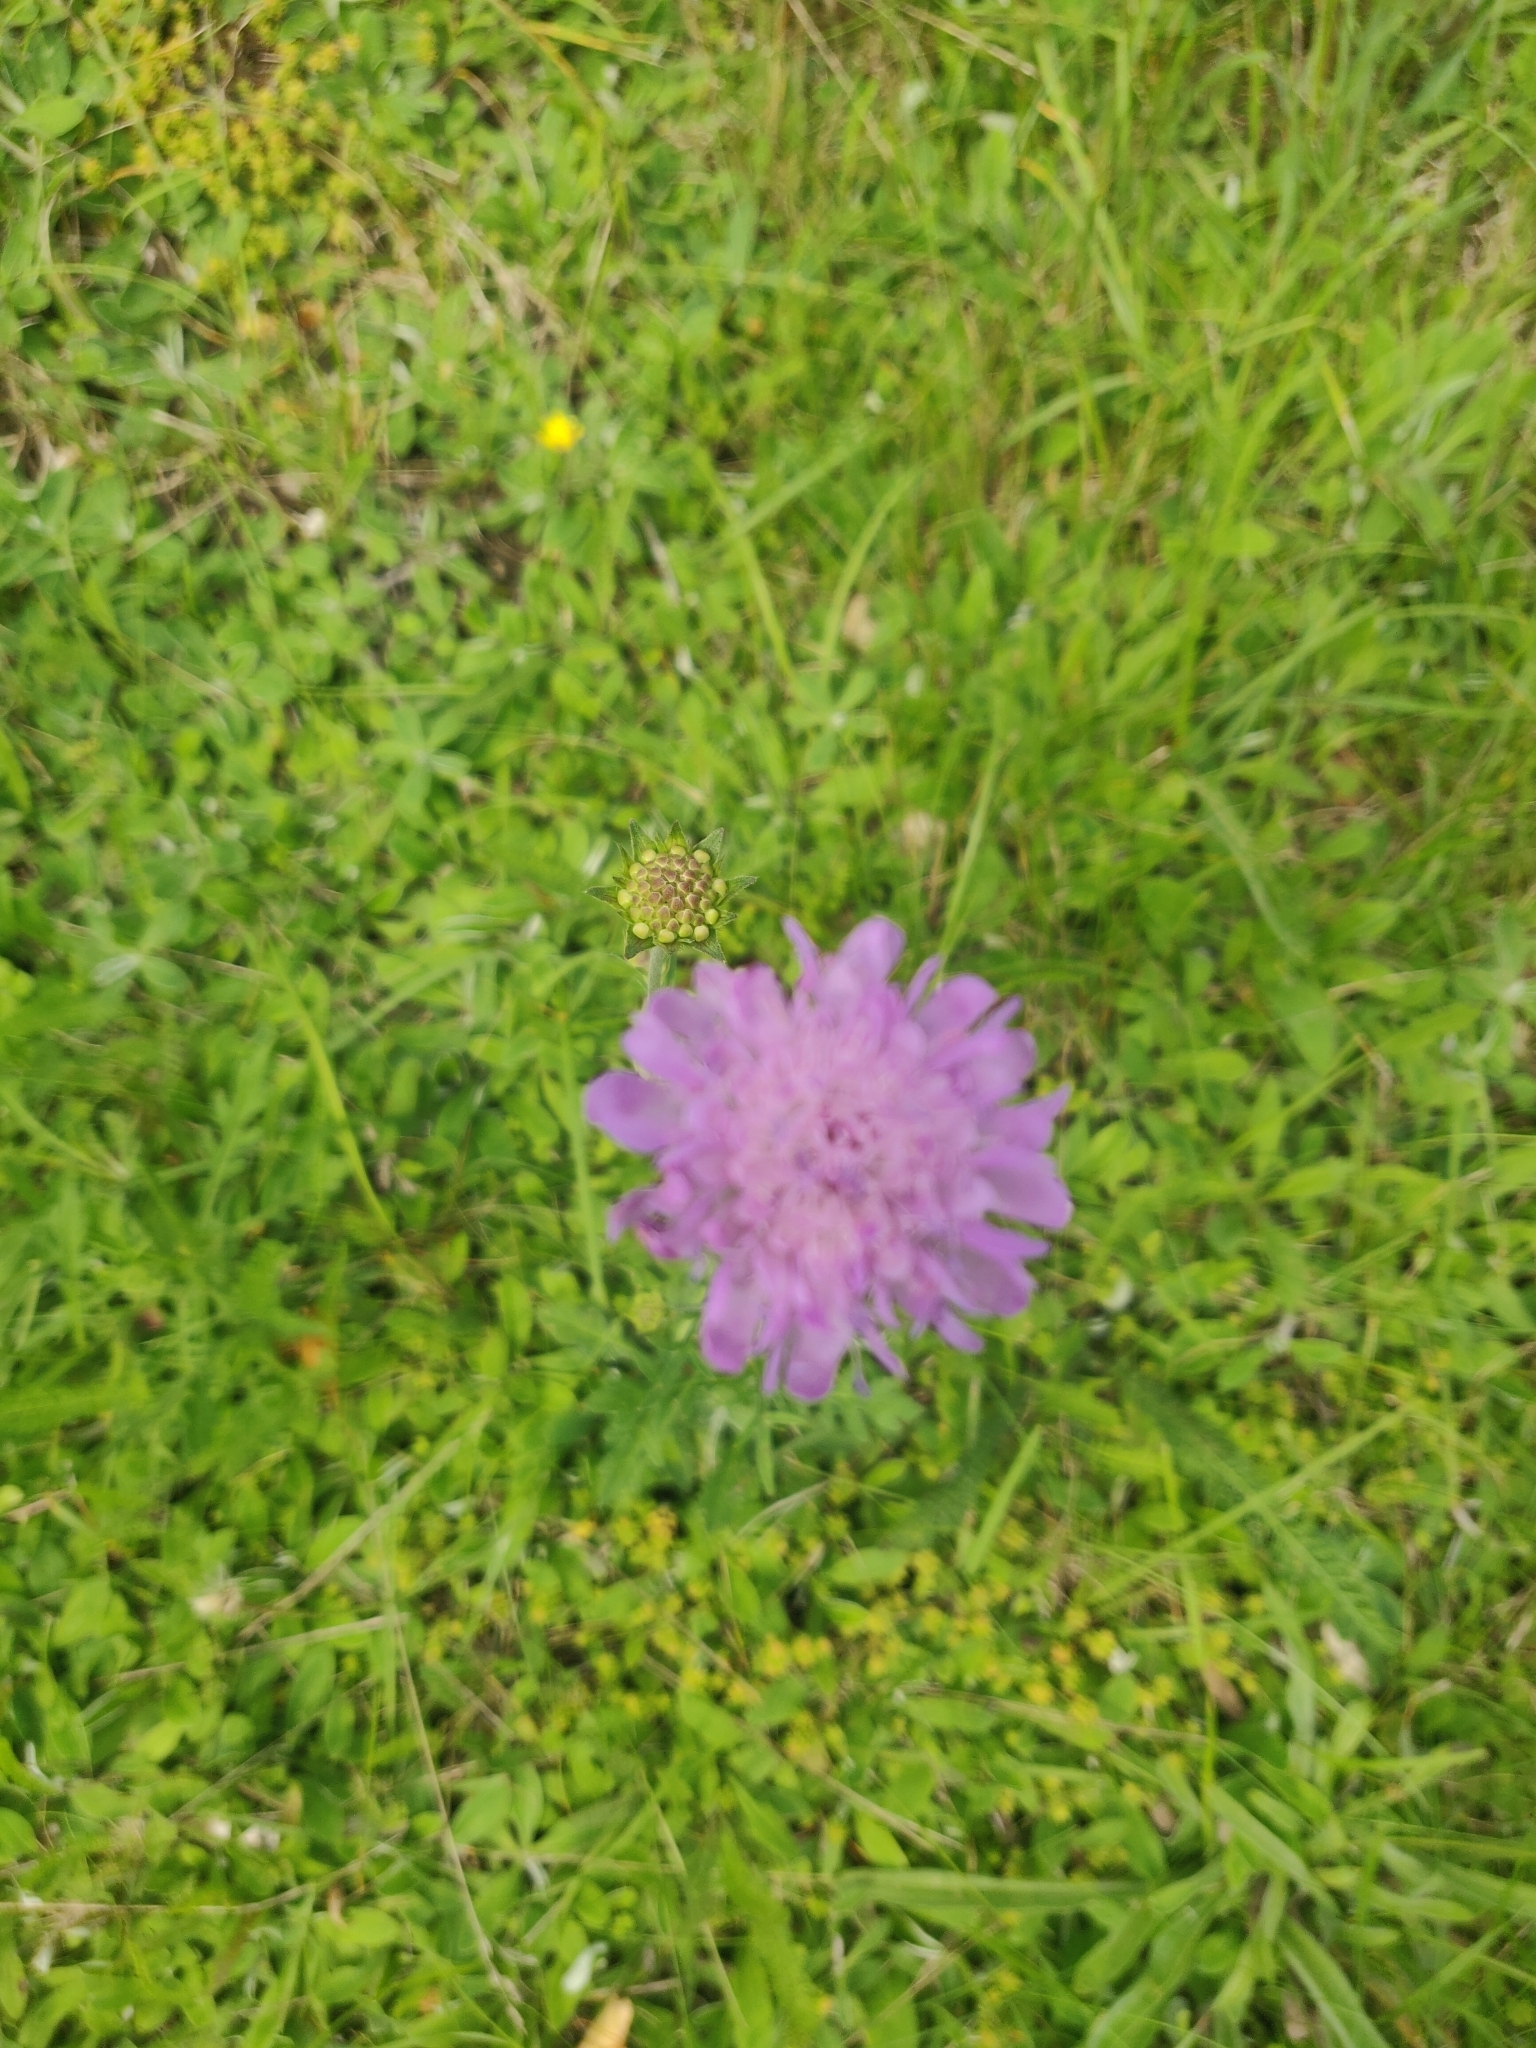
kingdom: Plantae
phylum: Tracheophyta
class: Magnoliopsida
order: Dipsacales
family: Caprifoliaceae
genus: Knautia
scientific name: Knautia arvensis
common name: Field scabiosa
